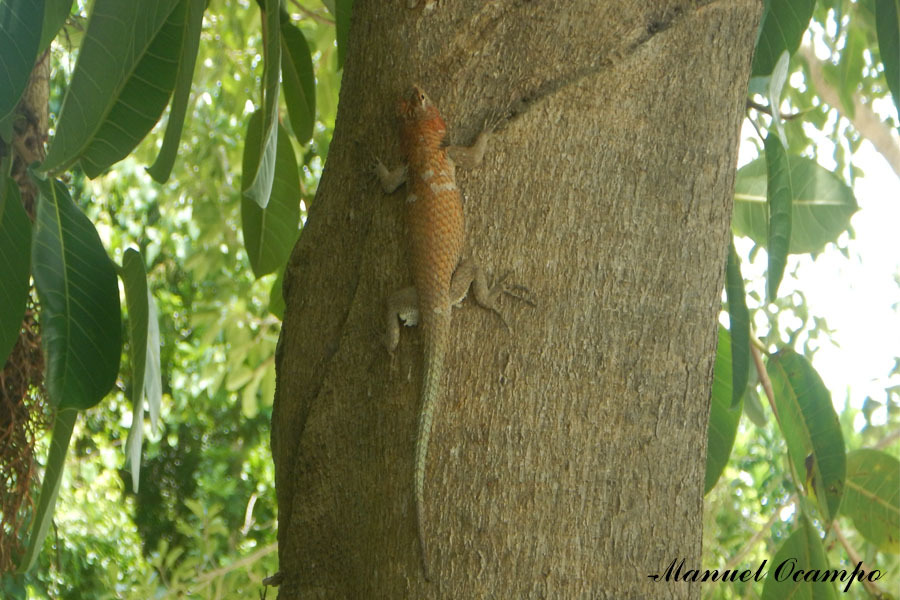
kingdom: Animalia
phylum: Chordata
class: Squamata
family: Phrynosomatidae
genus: Sceloporus
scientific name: Sceloporus lundelli
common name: Lundell's spiny lizard
